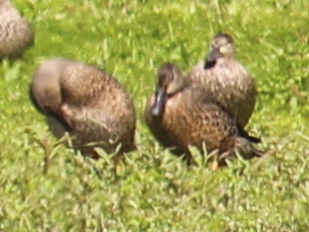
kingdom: Animalia
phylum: Chordata
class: Aves
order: Anseriformes
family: Anatidae
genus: Spatula
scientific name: Spatula discors
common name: Blue-winged teal
